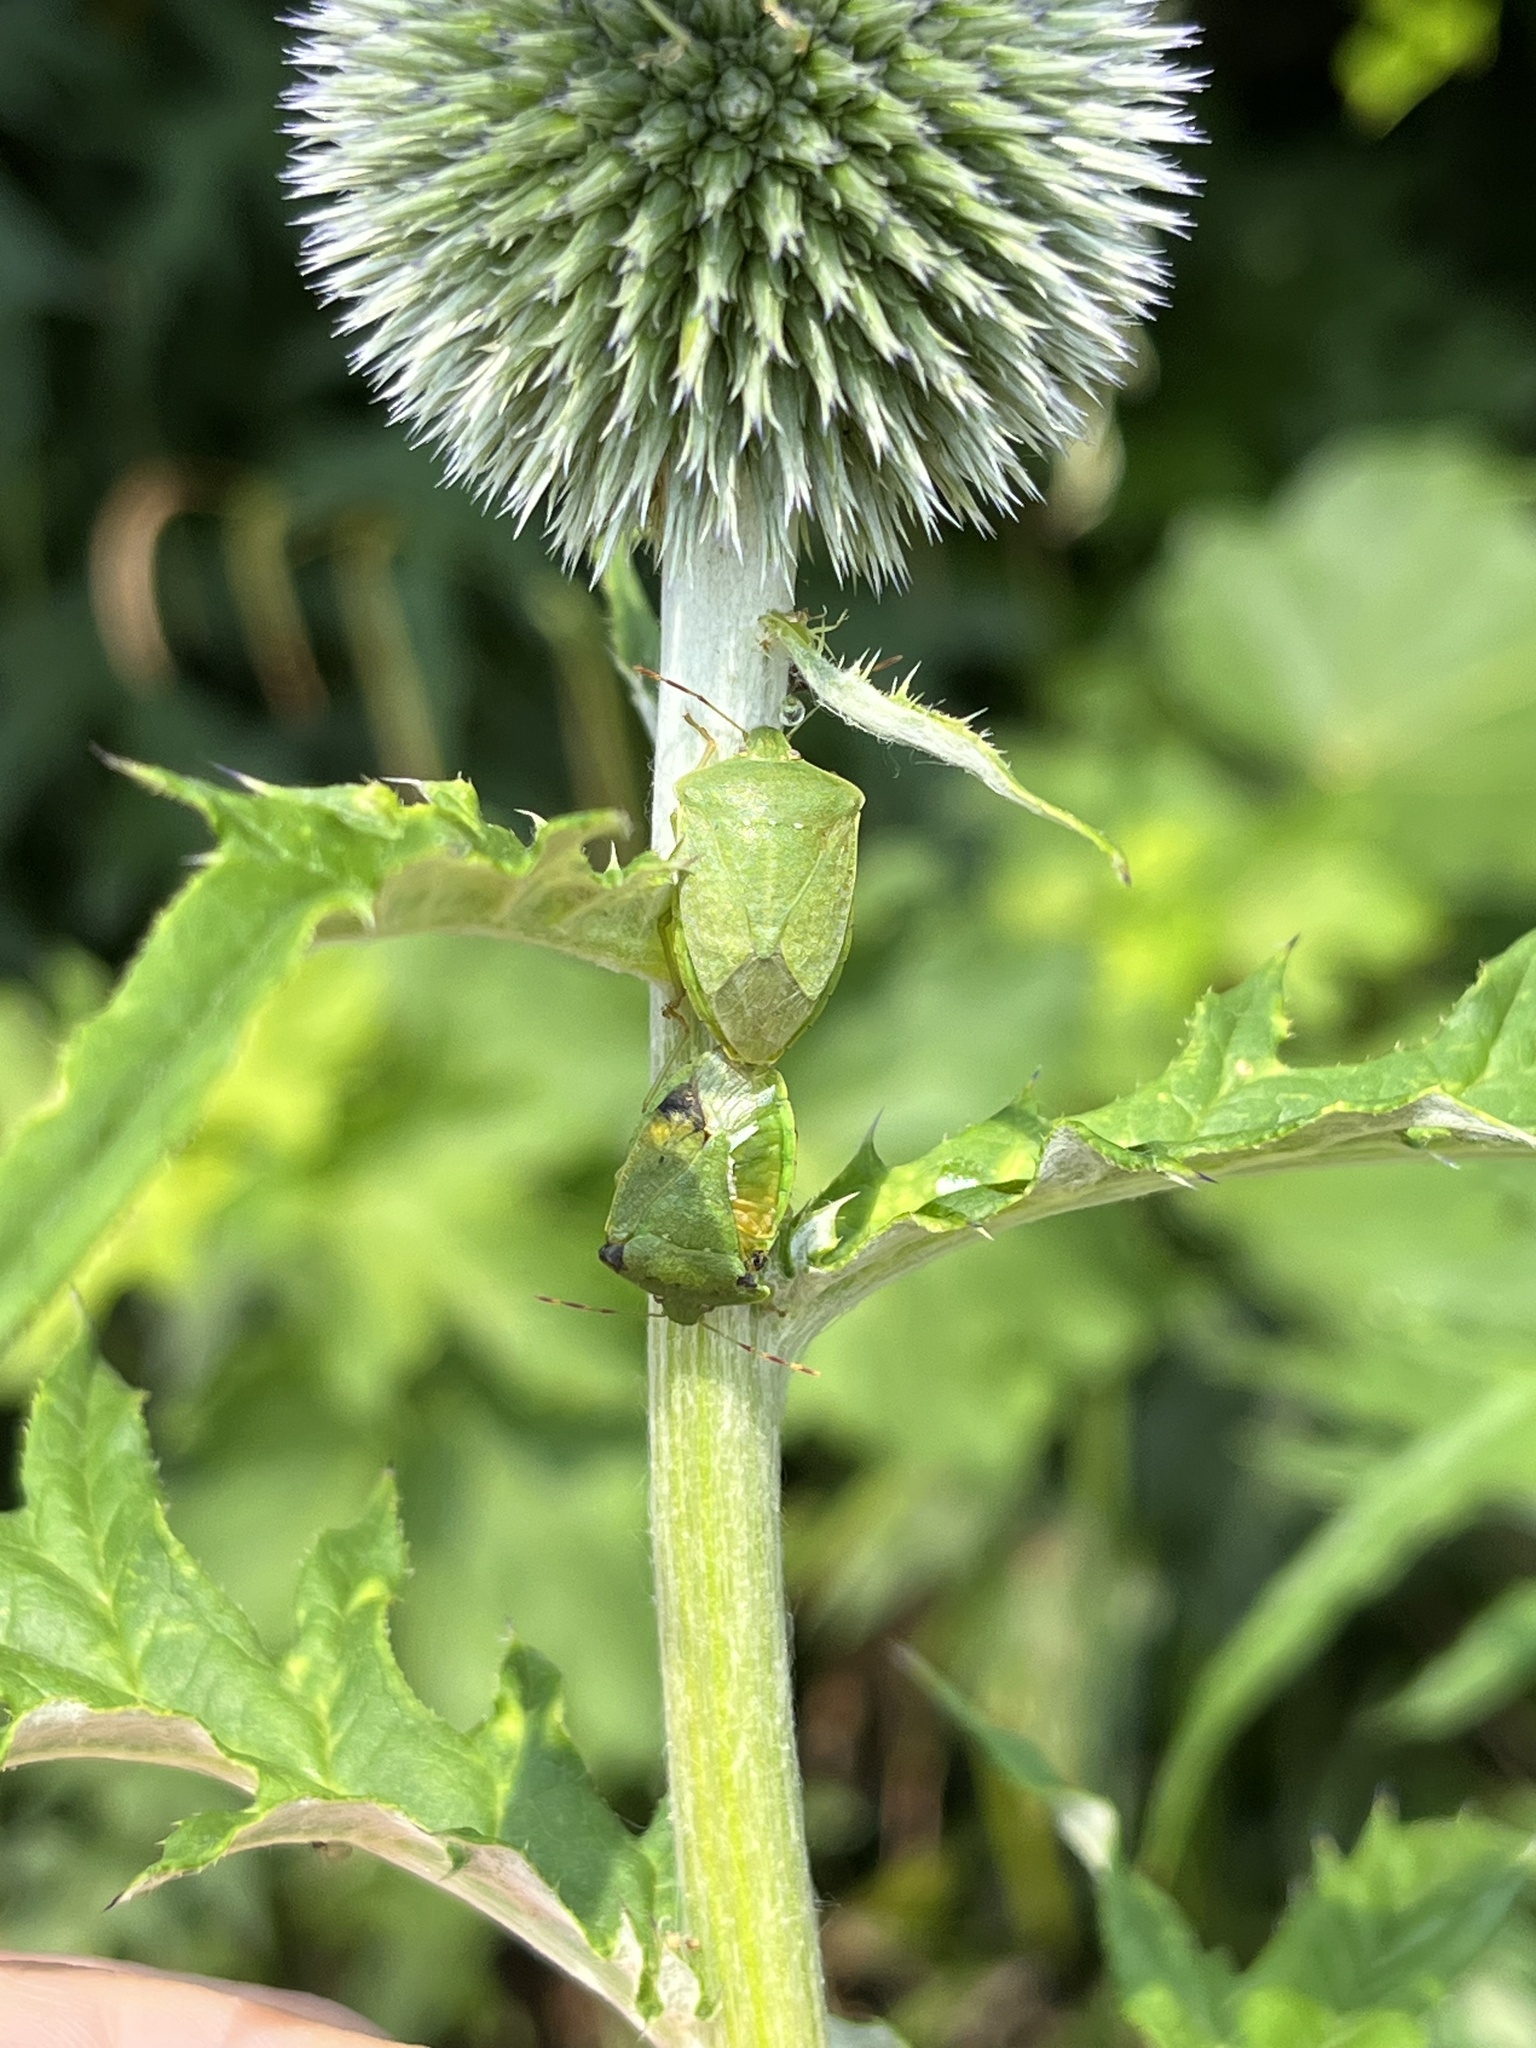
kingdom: Animalia
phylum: Arthropoda
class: Insecta
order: Hemiptera
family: Pentatomidae
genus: Nezara
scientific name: Nezara viridula
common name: Southern green stink bug
